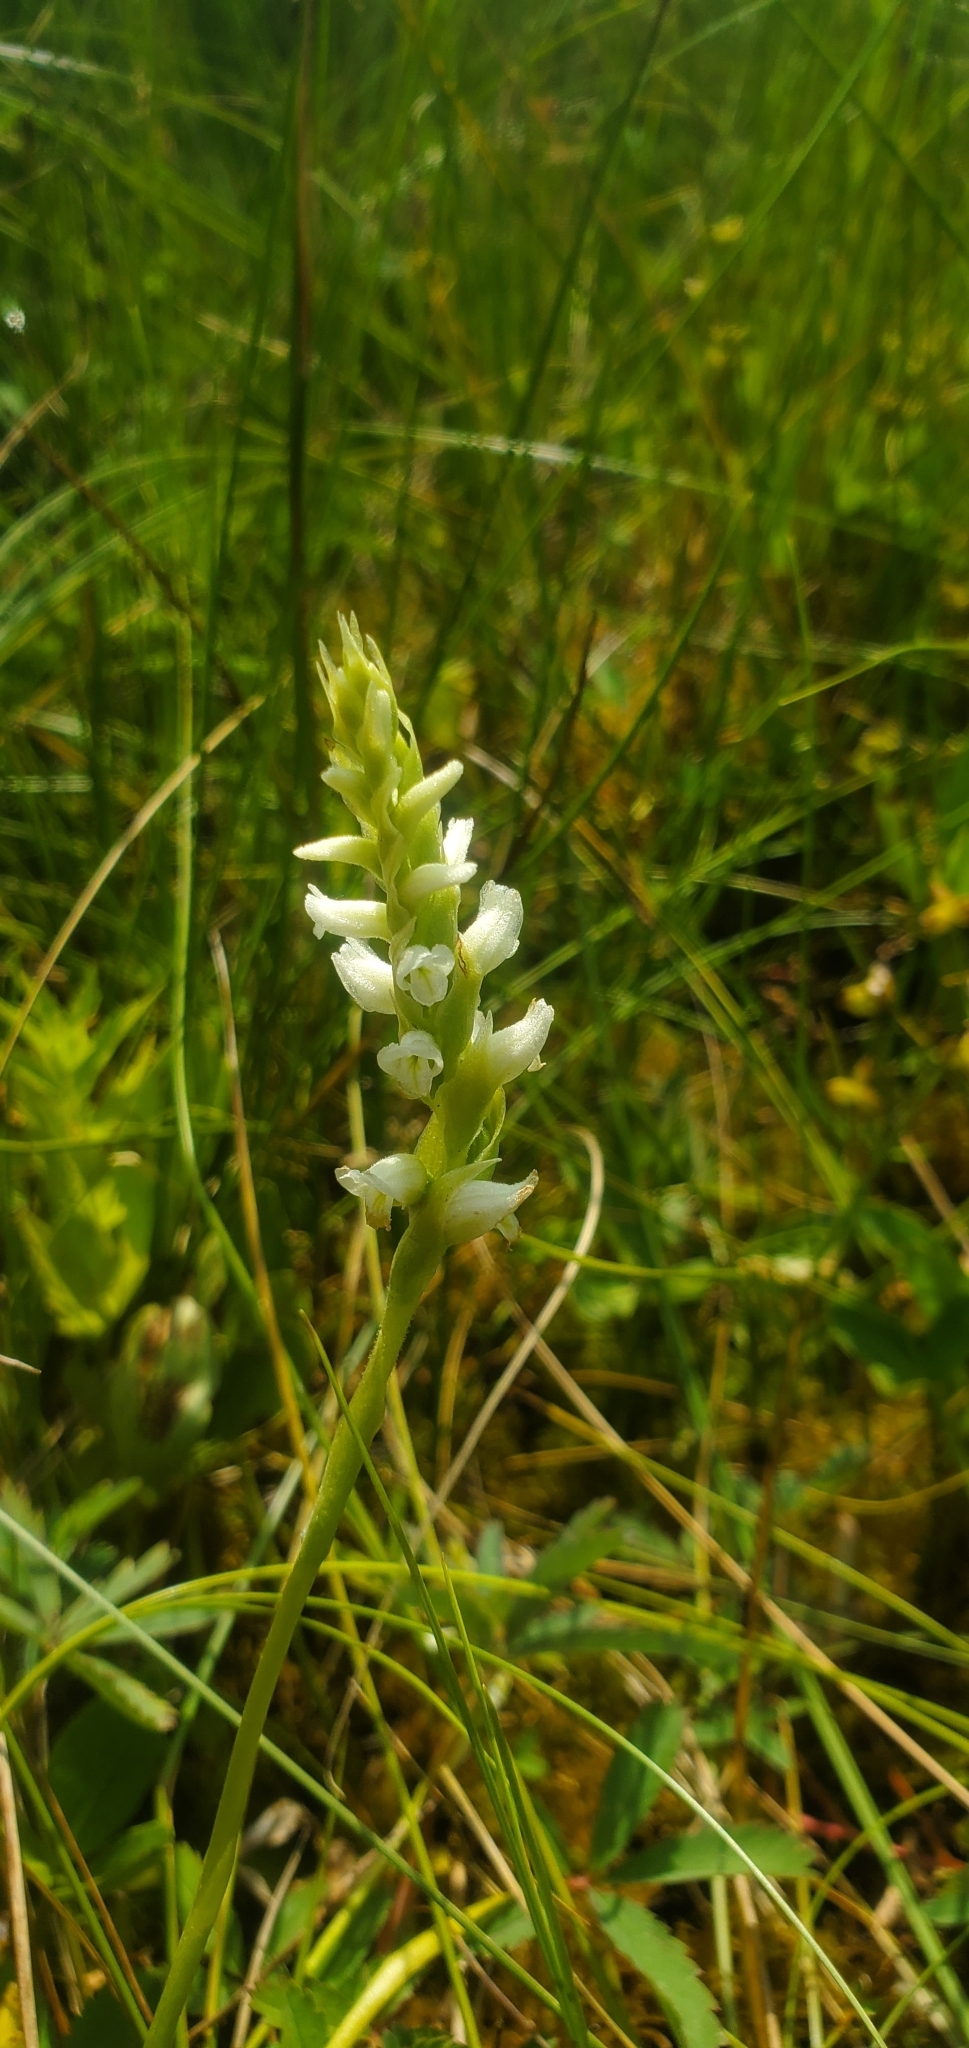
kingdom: Plantae
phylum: Tracheophyta
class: Liliopsida
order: Asparagales
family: Orchidaceae
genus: Spiranthes
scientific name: Spiranthes romanzoffiana
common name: Irish lady's-tresses
